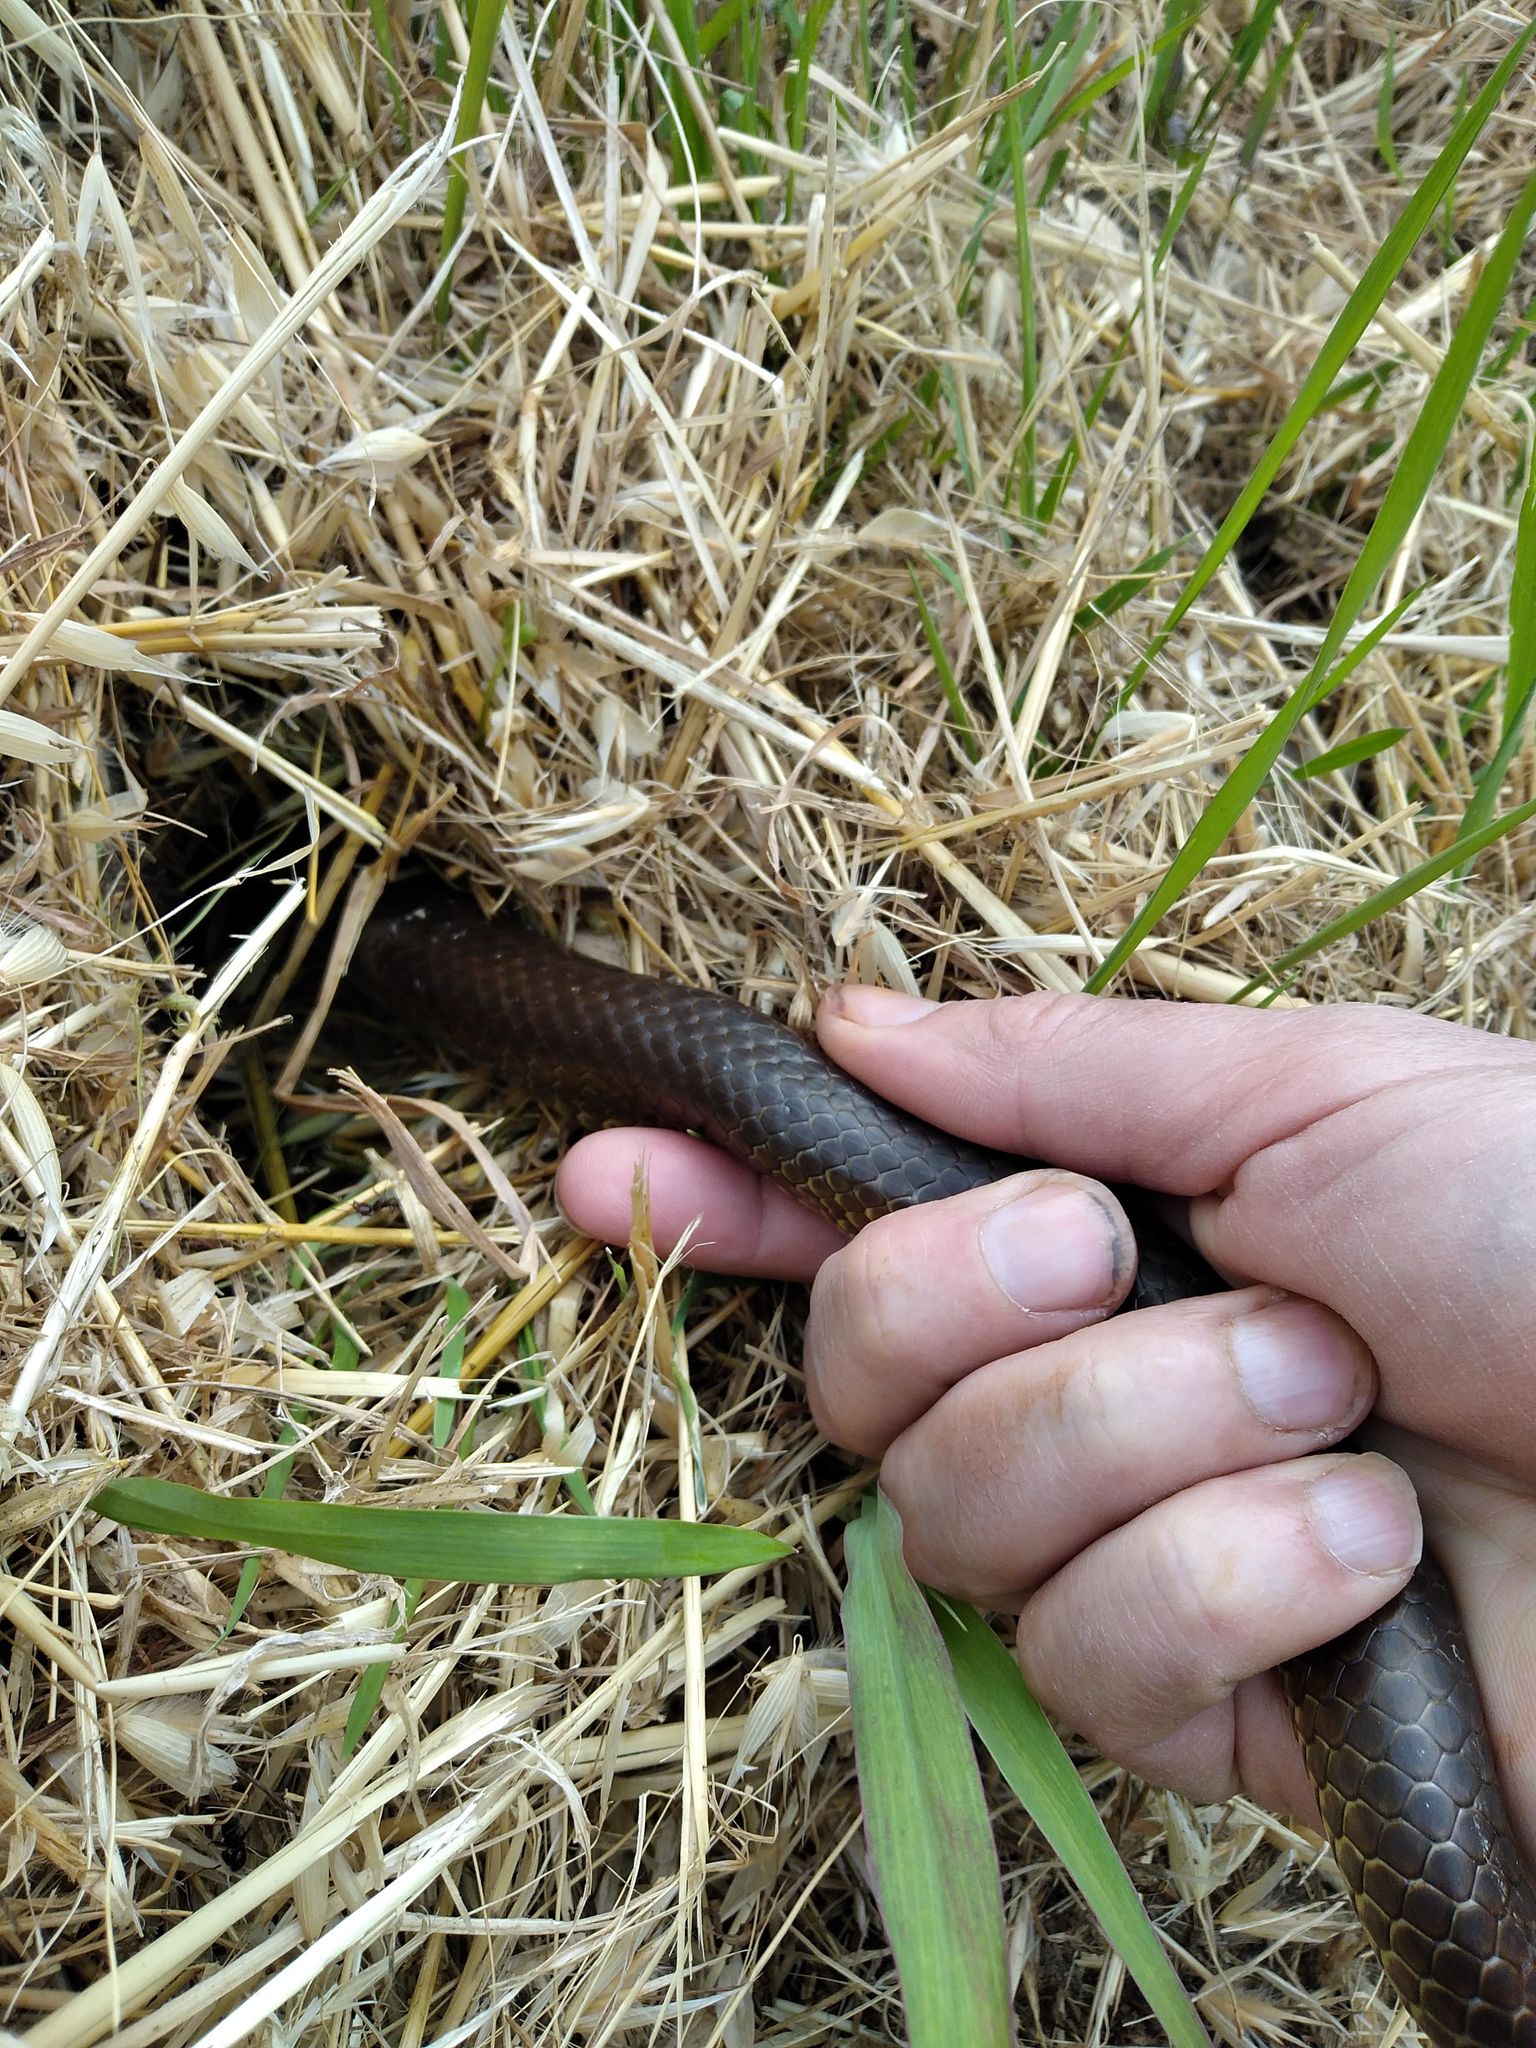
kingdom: Animalia
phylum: Chordata
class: Squamata
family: Colubridae
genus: Zamenis
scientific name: Zamenis longissimus
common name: Aesculapean snake
